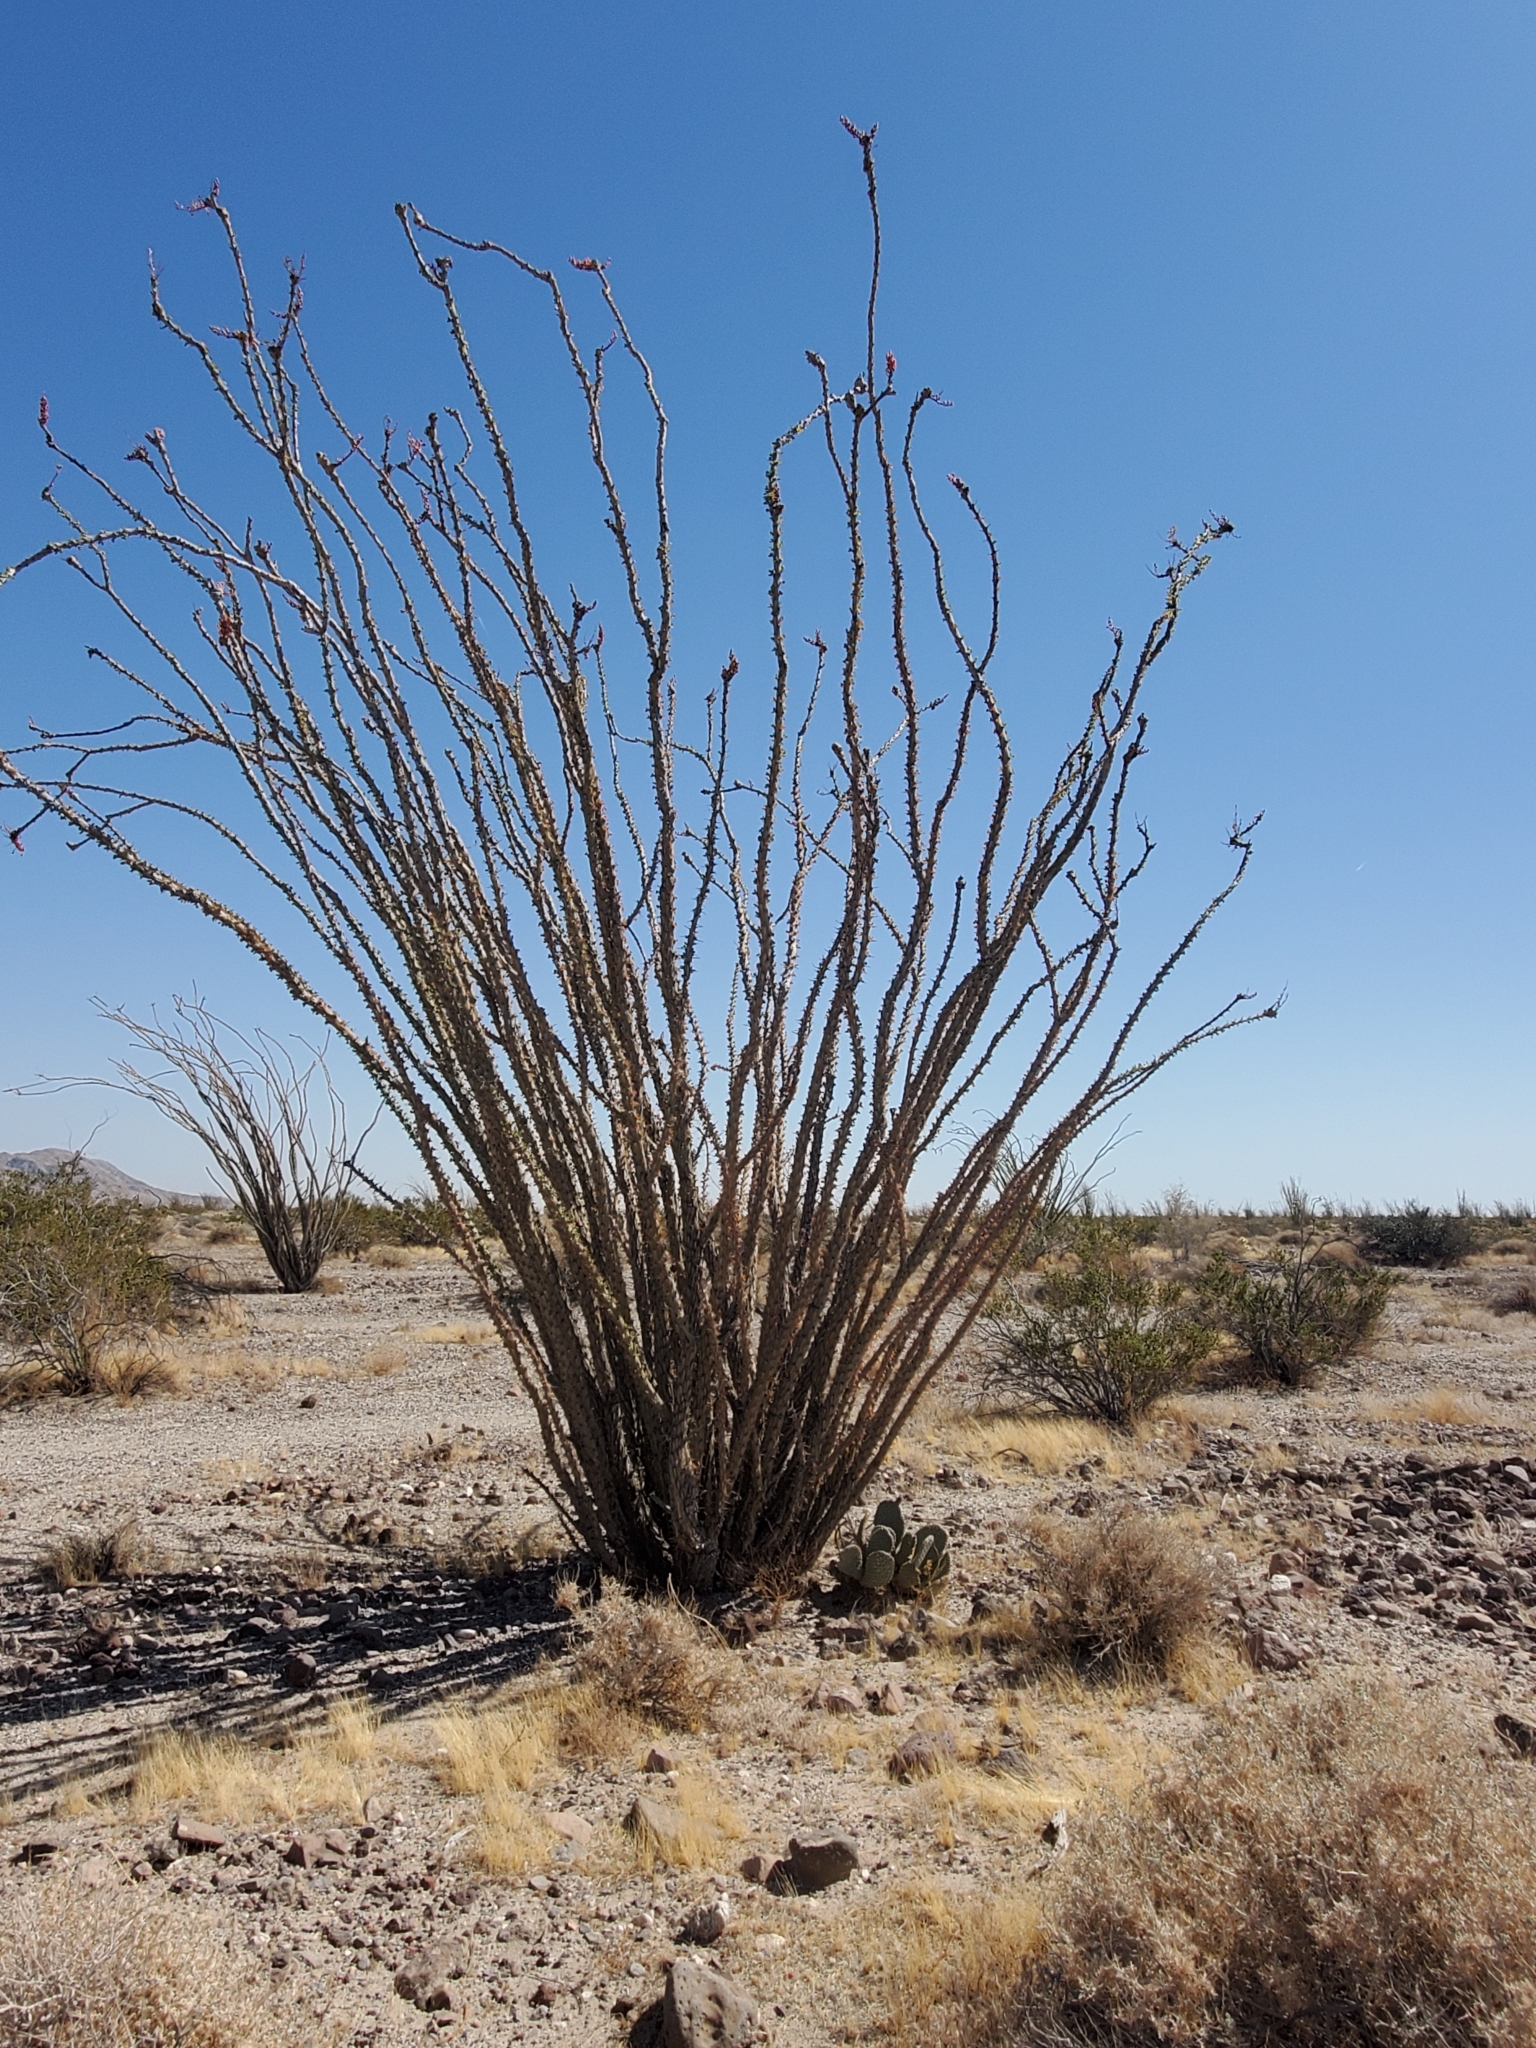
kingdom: Plantae
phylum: Tracheophyta
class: Magnoliopsida
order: Ericales
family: Fouquieriaceae
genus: Fouquieria
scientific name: Fouquieria splendens
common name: Vine-cactus
